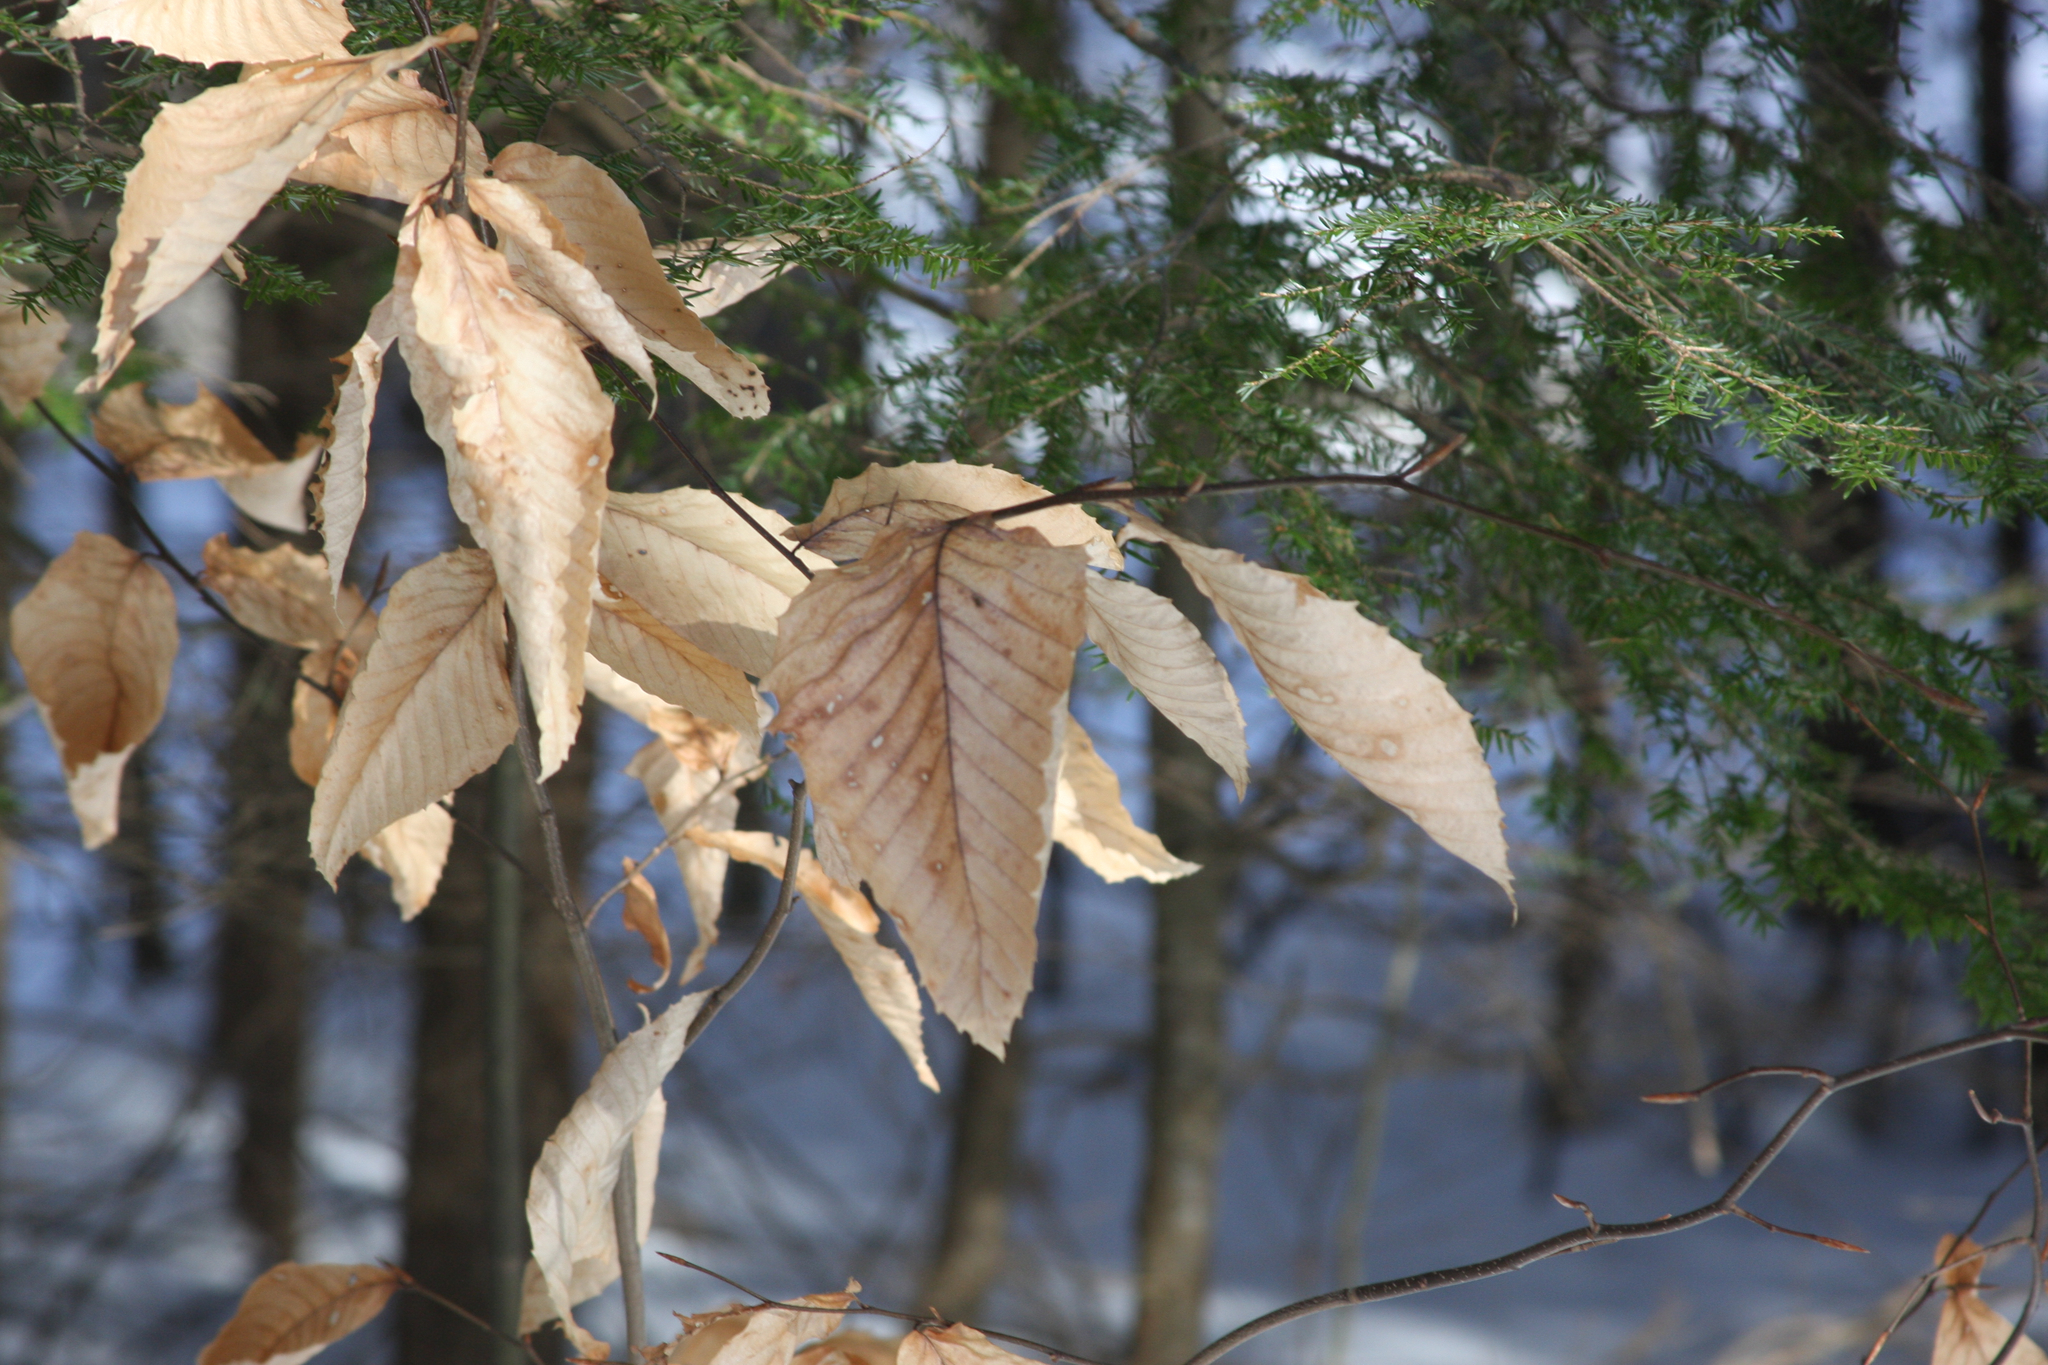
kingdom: Plantae
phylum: Tracheophyta
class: Magnoliopsida
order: Fagales
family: Fagaceae
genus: Fagus
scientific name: Fagus grandifolia
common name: American beech
